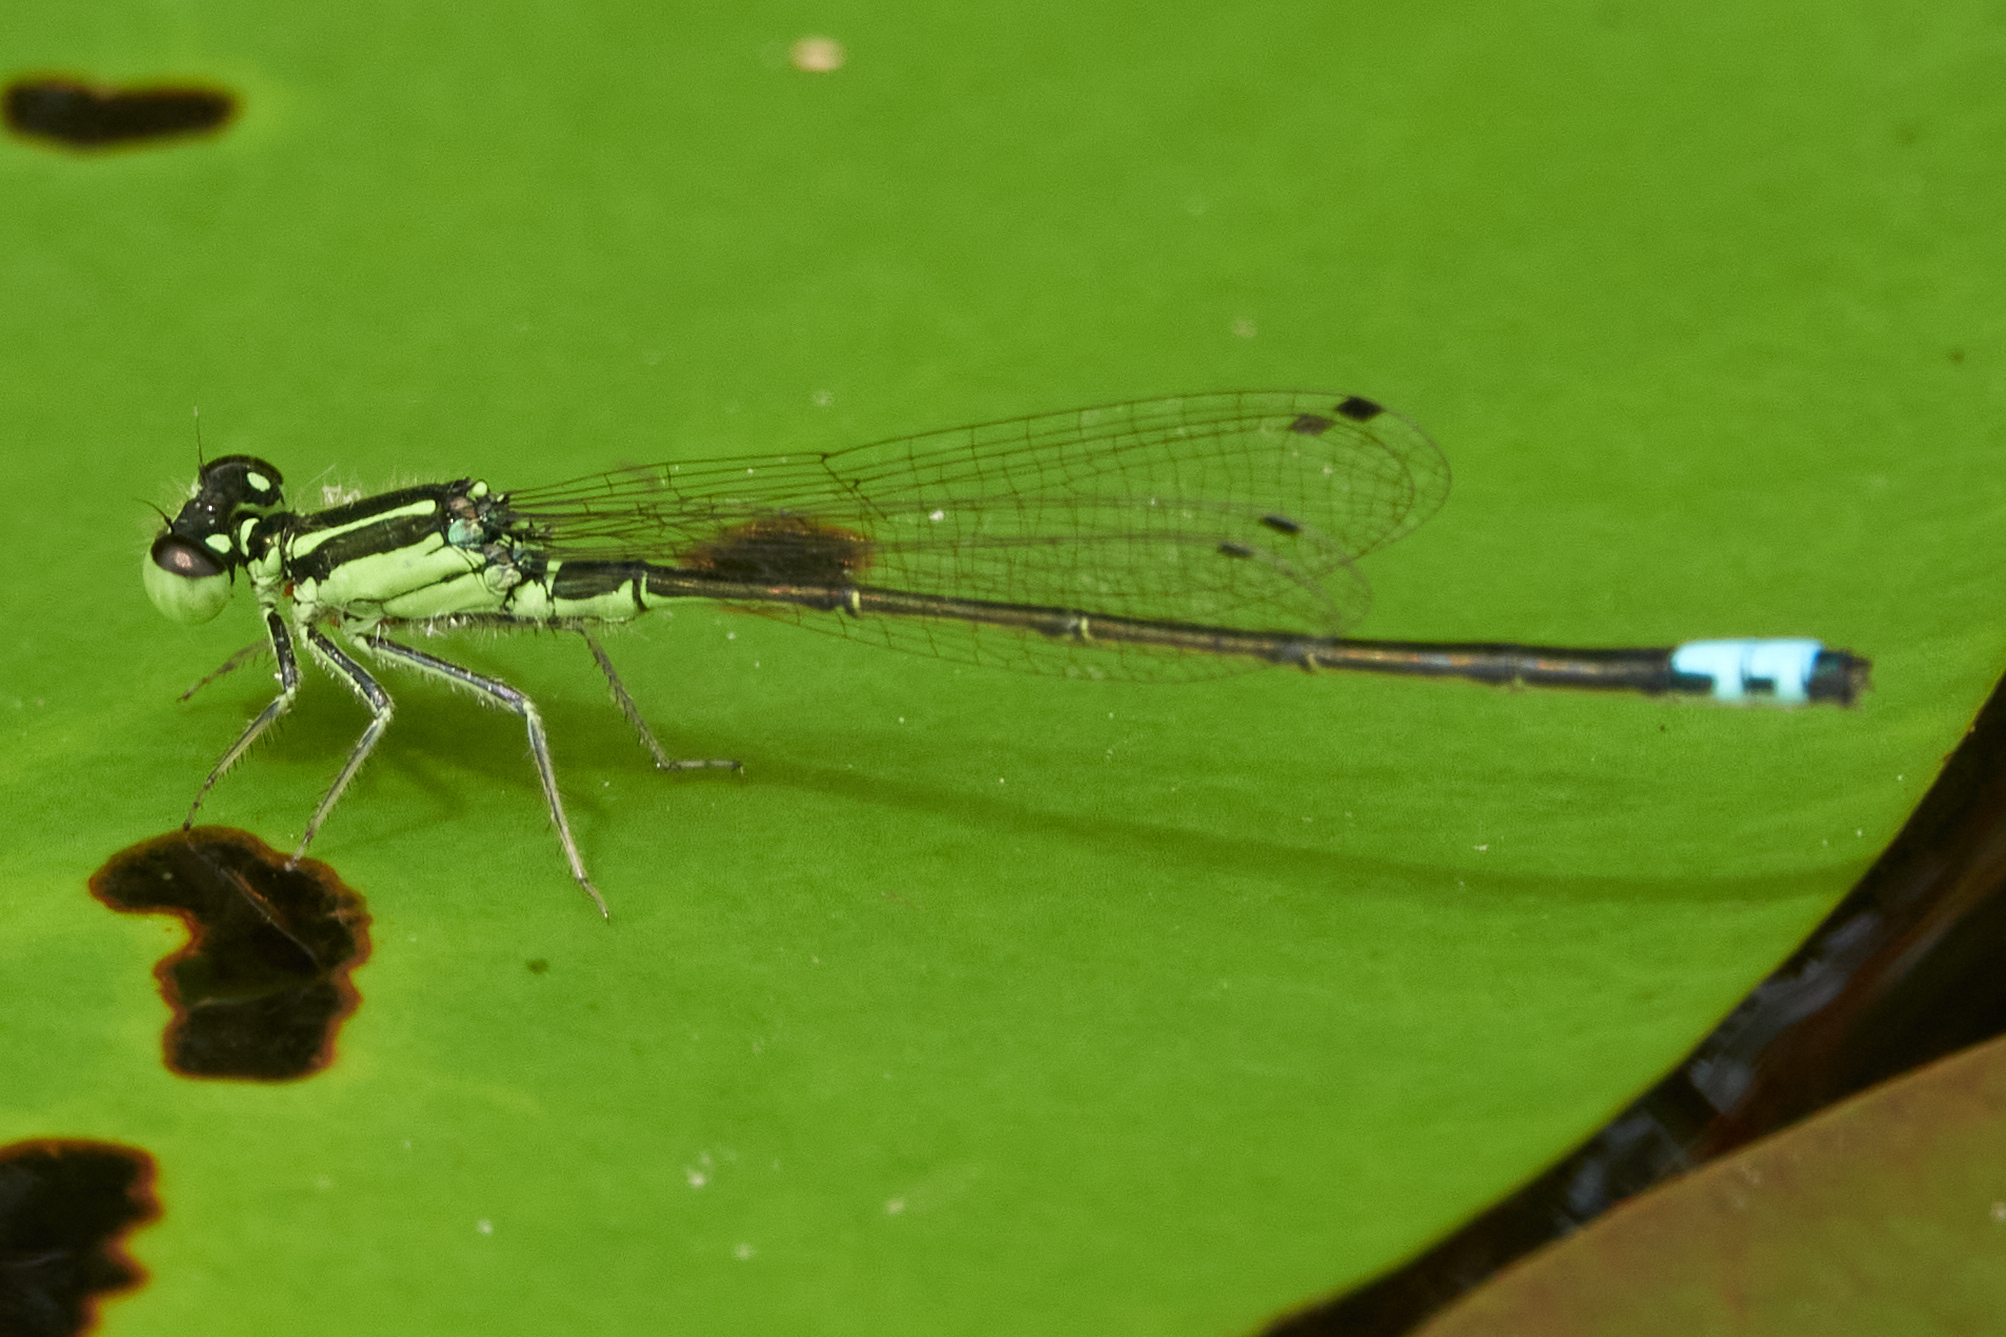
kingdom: Animalia
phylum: Arthropoda
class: Insecta
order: Odonata
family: Coenagrionidae
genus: Ischnura
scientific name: Ischnura verticalis
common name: Eastern forktail
